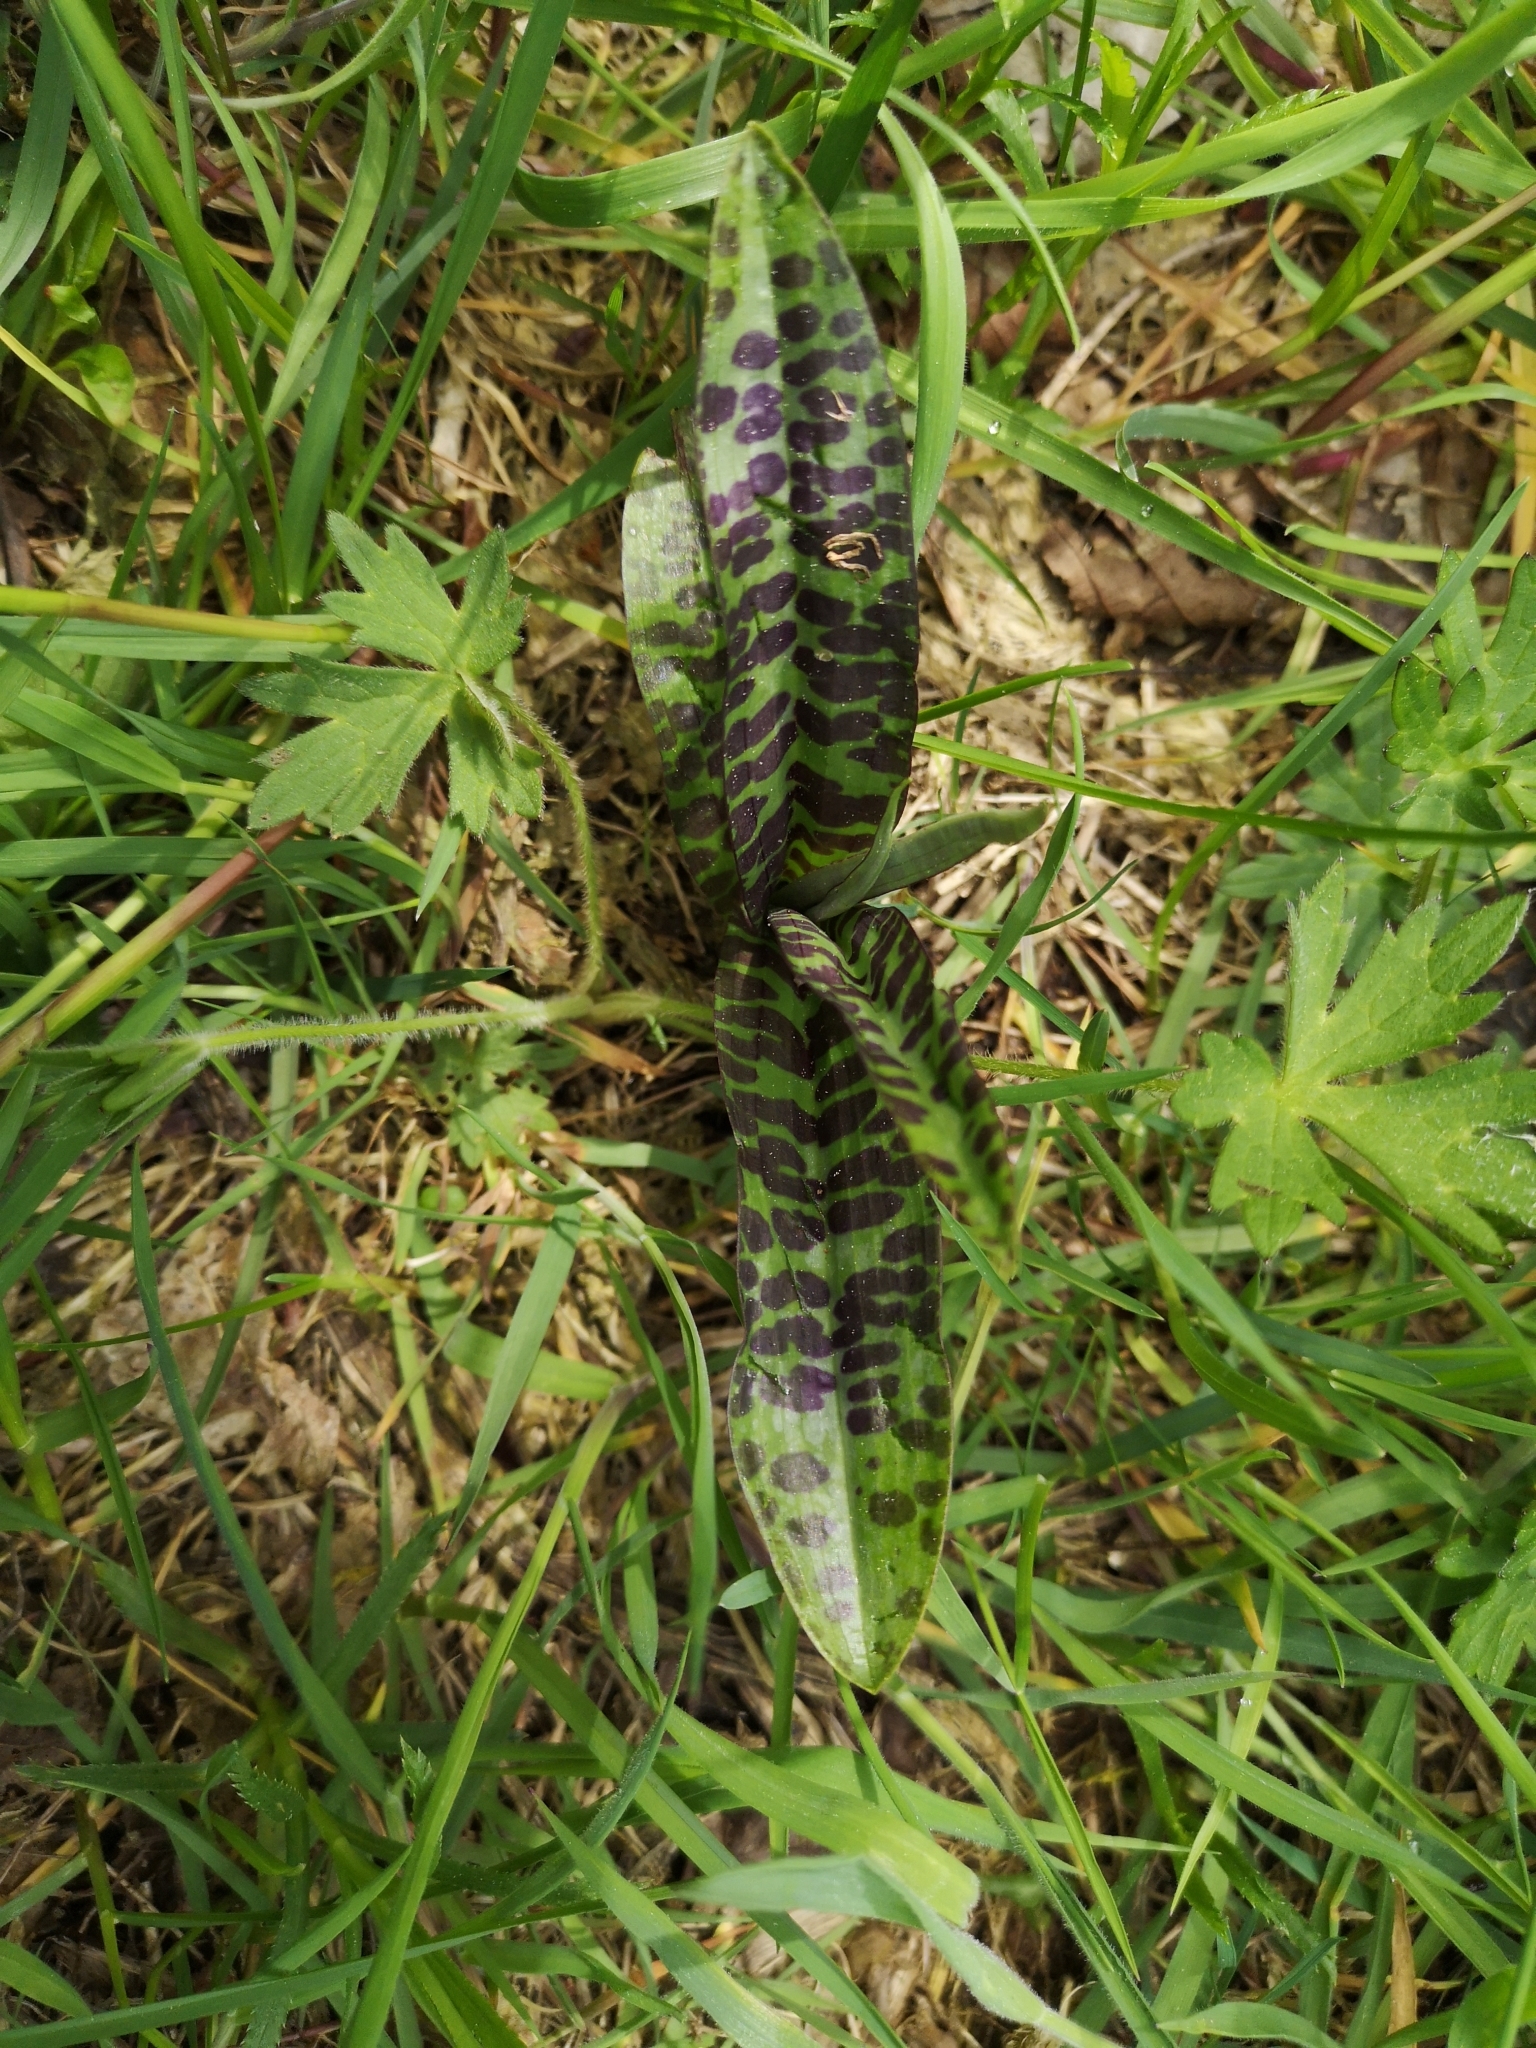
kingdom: Plantae
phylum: Tracheophyta
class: Liliopsida
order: Asparagales
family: Orchidaceae
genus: Dactylorhiza
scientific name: Dactylorhiza maculata
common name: Heath spotted-orchid
